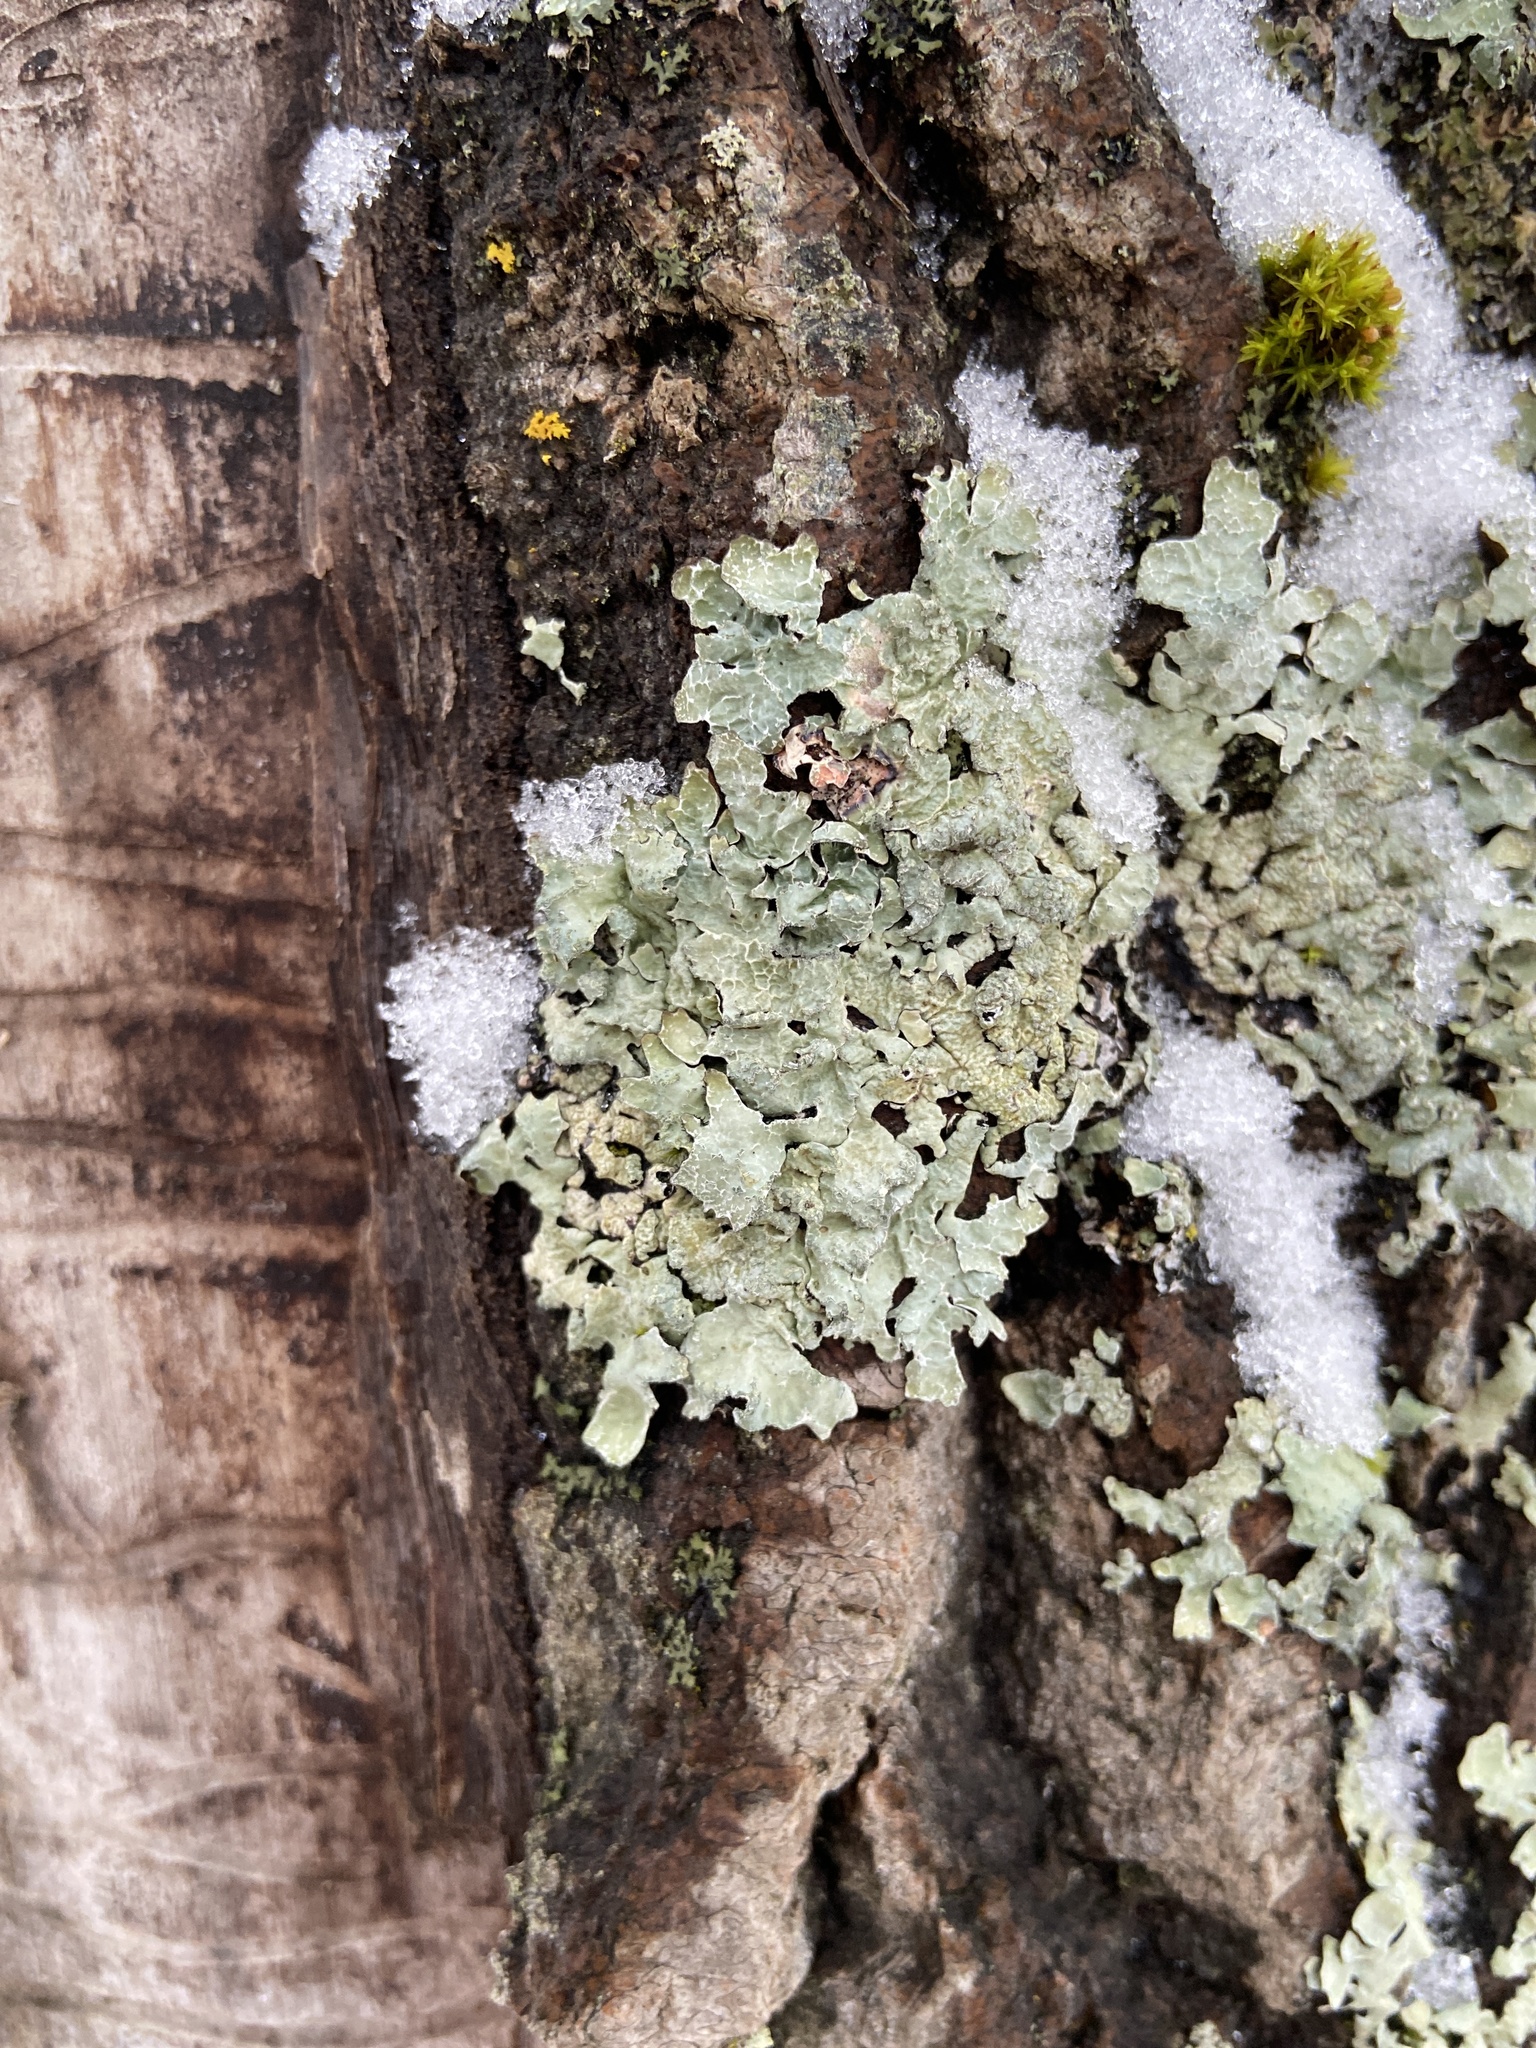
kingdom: Fungi
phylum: Ascomycota
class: Lecanoromycetes
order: Lecanorales
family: Parmeliaceae
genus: Parmelia
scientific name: Parmelia sulcata
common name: Netted shield lichen
